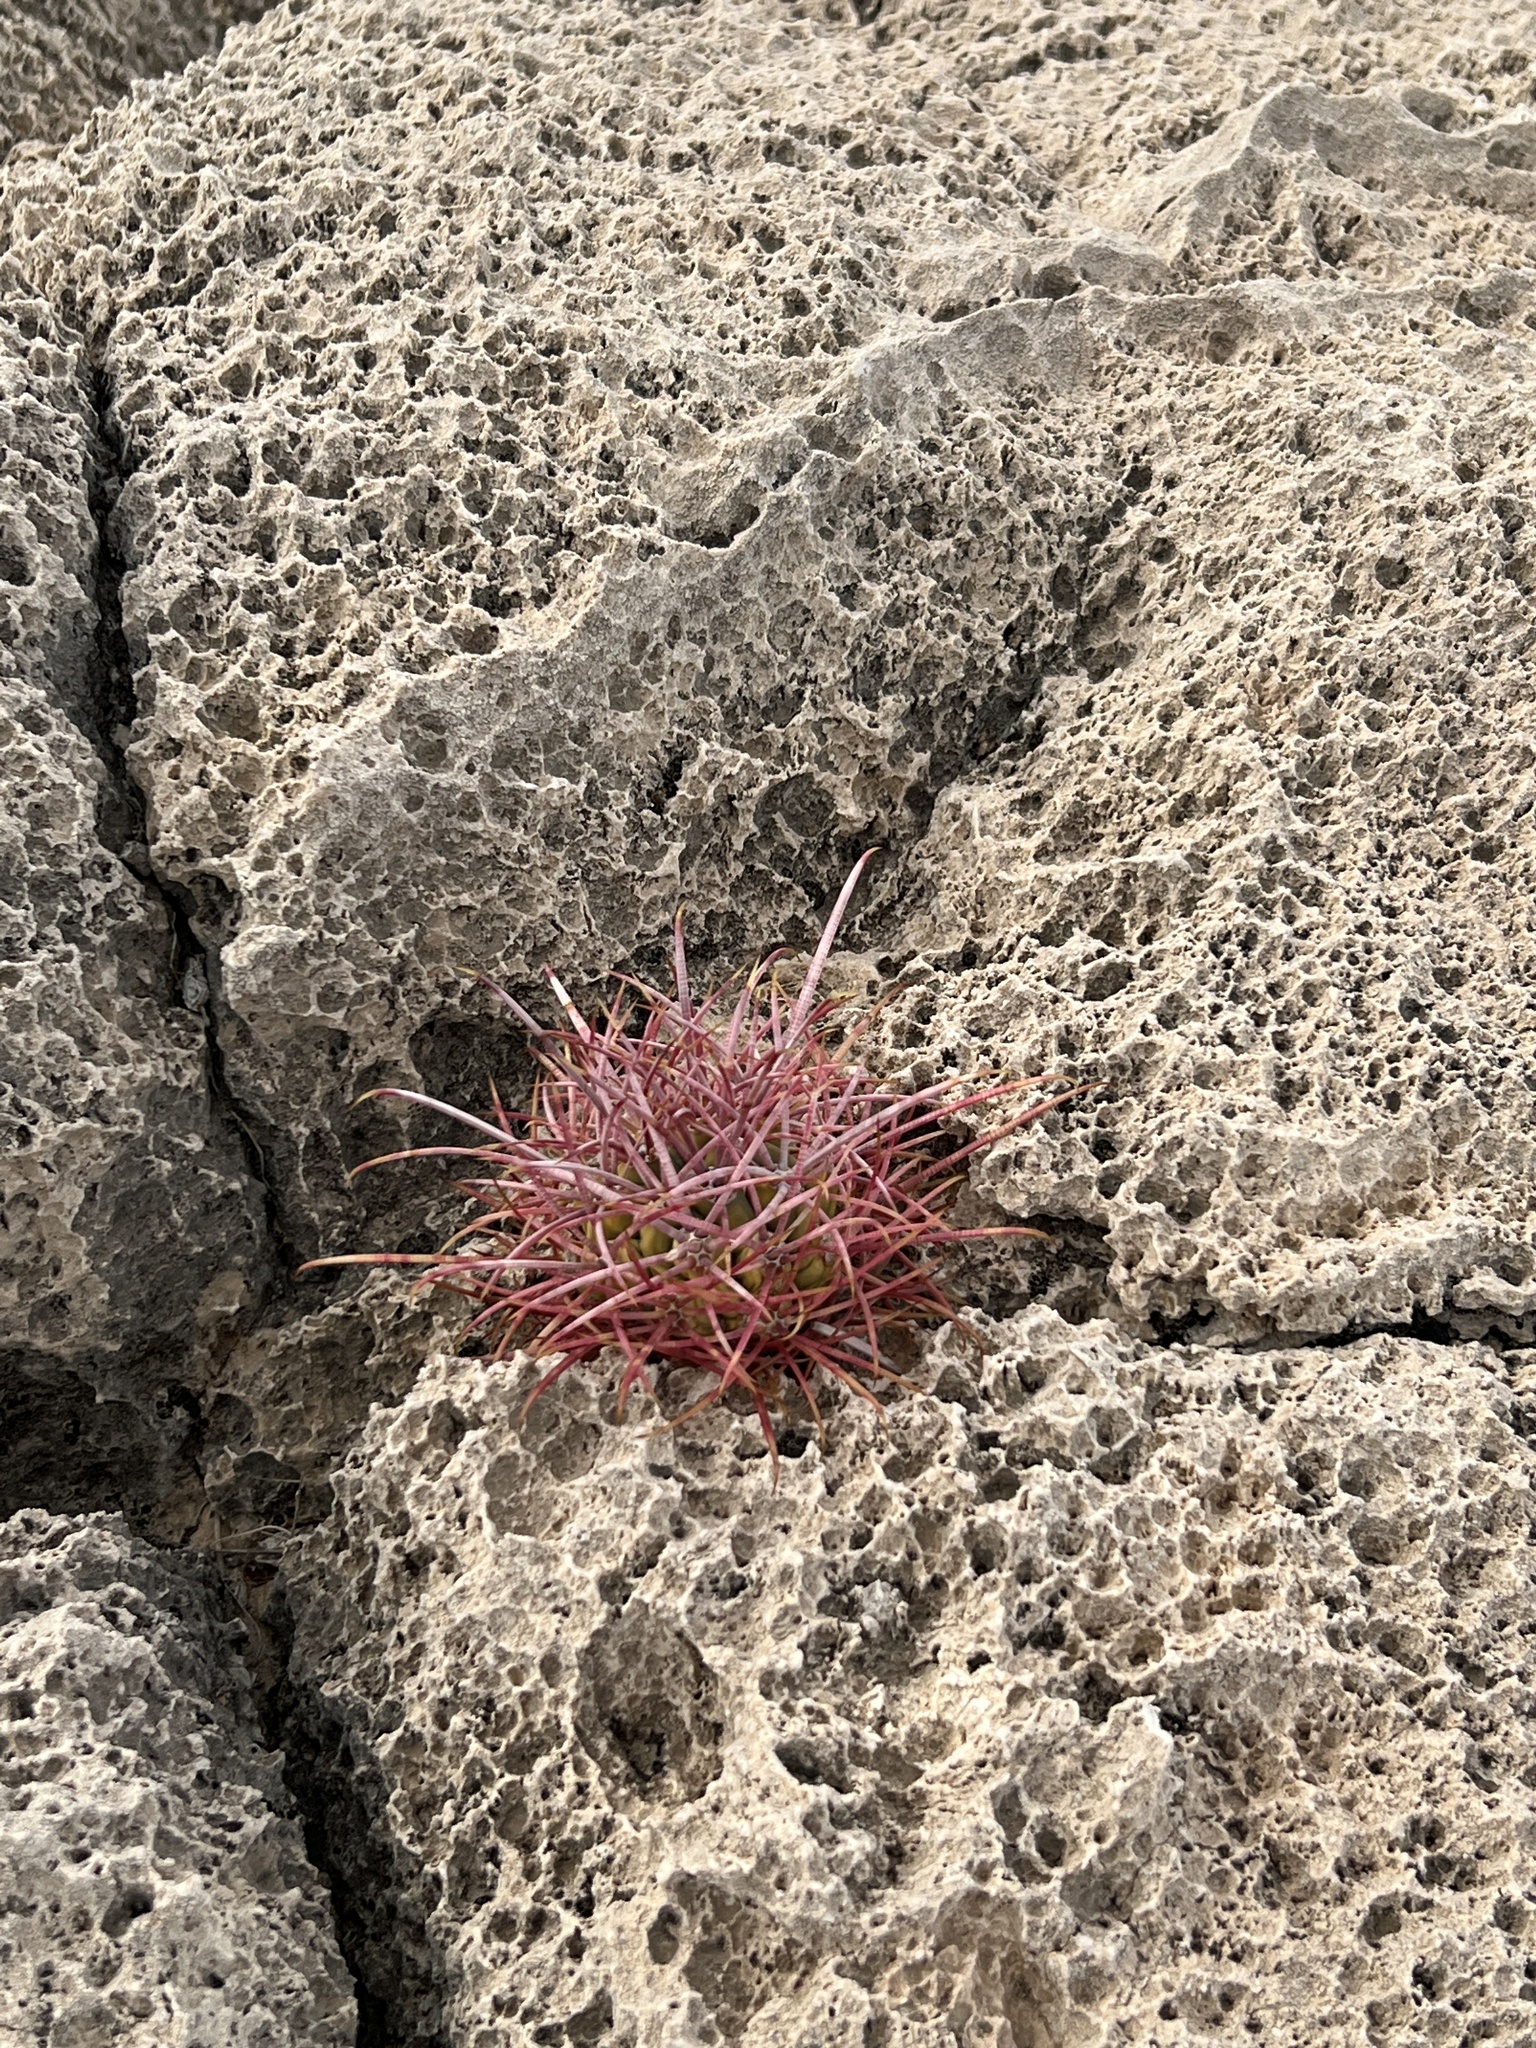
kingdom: Plantae
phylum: Tracheophyta
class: Magnoliopsida
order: Caryophyllales
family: Cactaceae
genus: Ferocactus
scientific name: Ferocactus cylindraceus
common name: California barrel cactus
